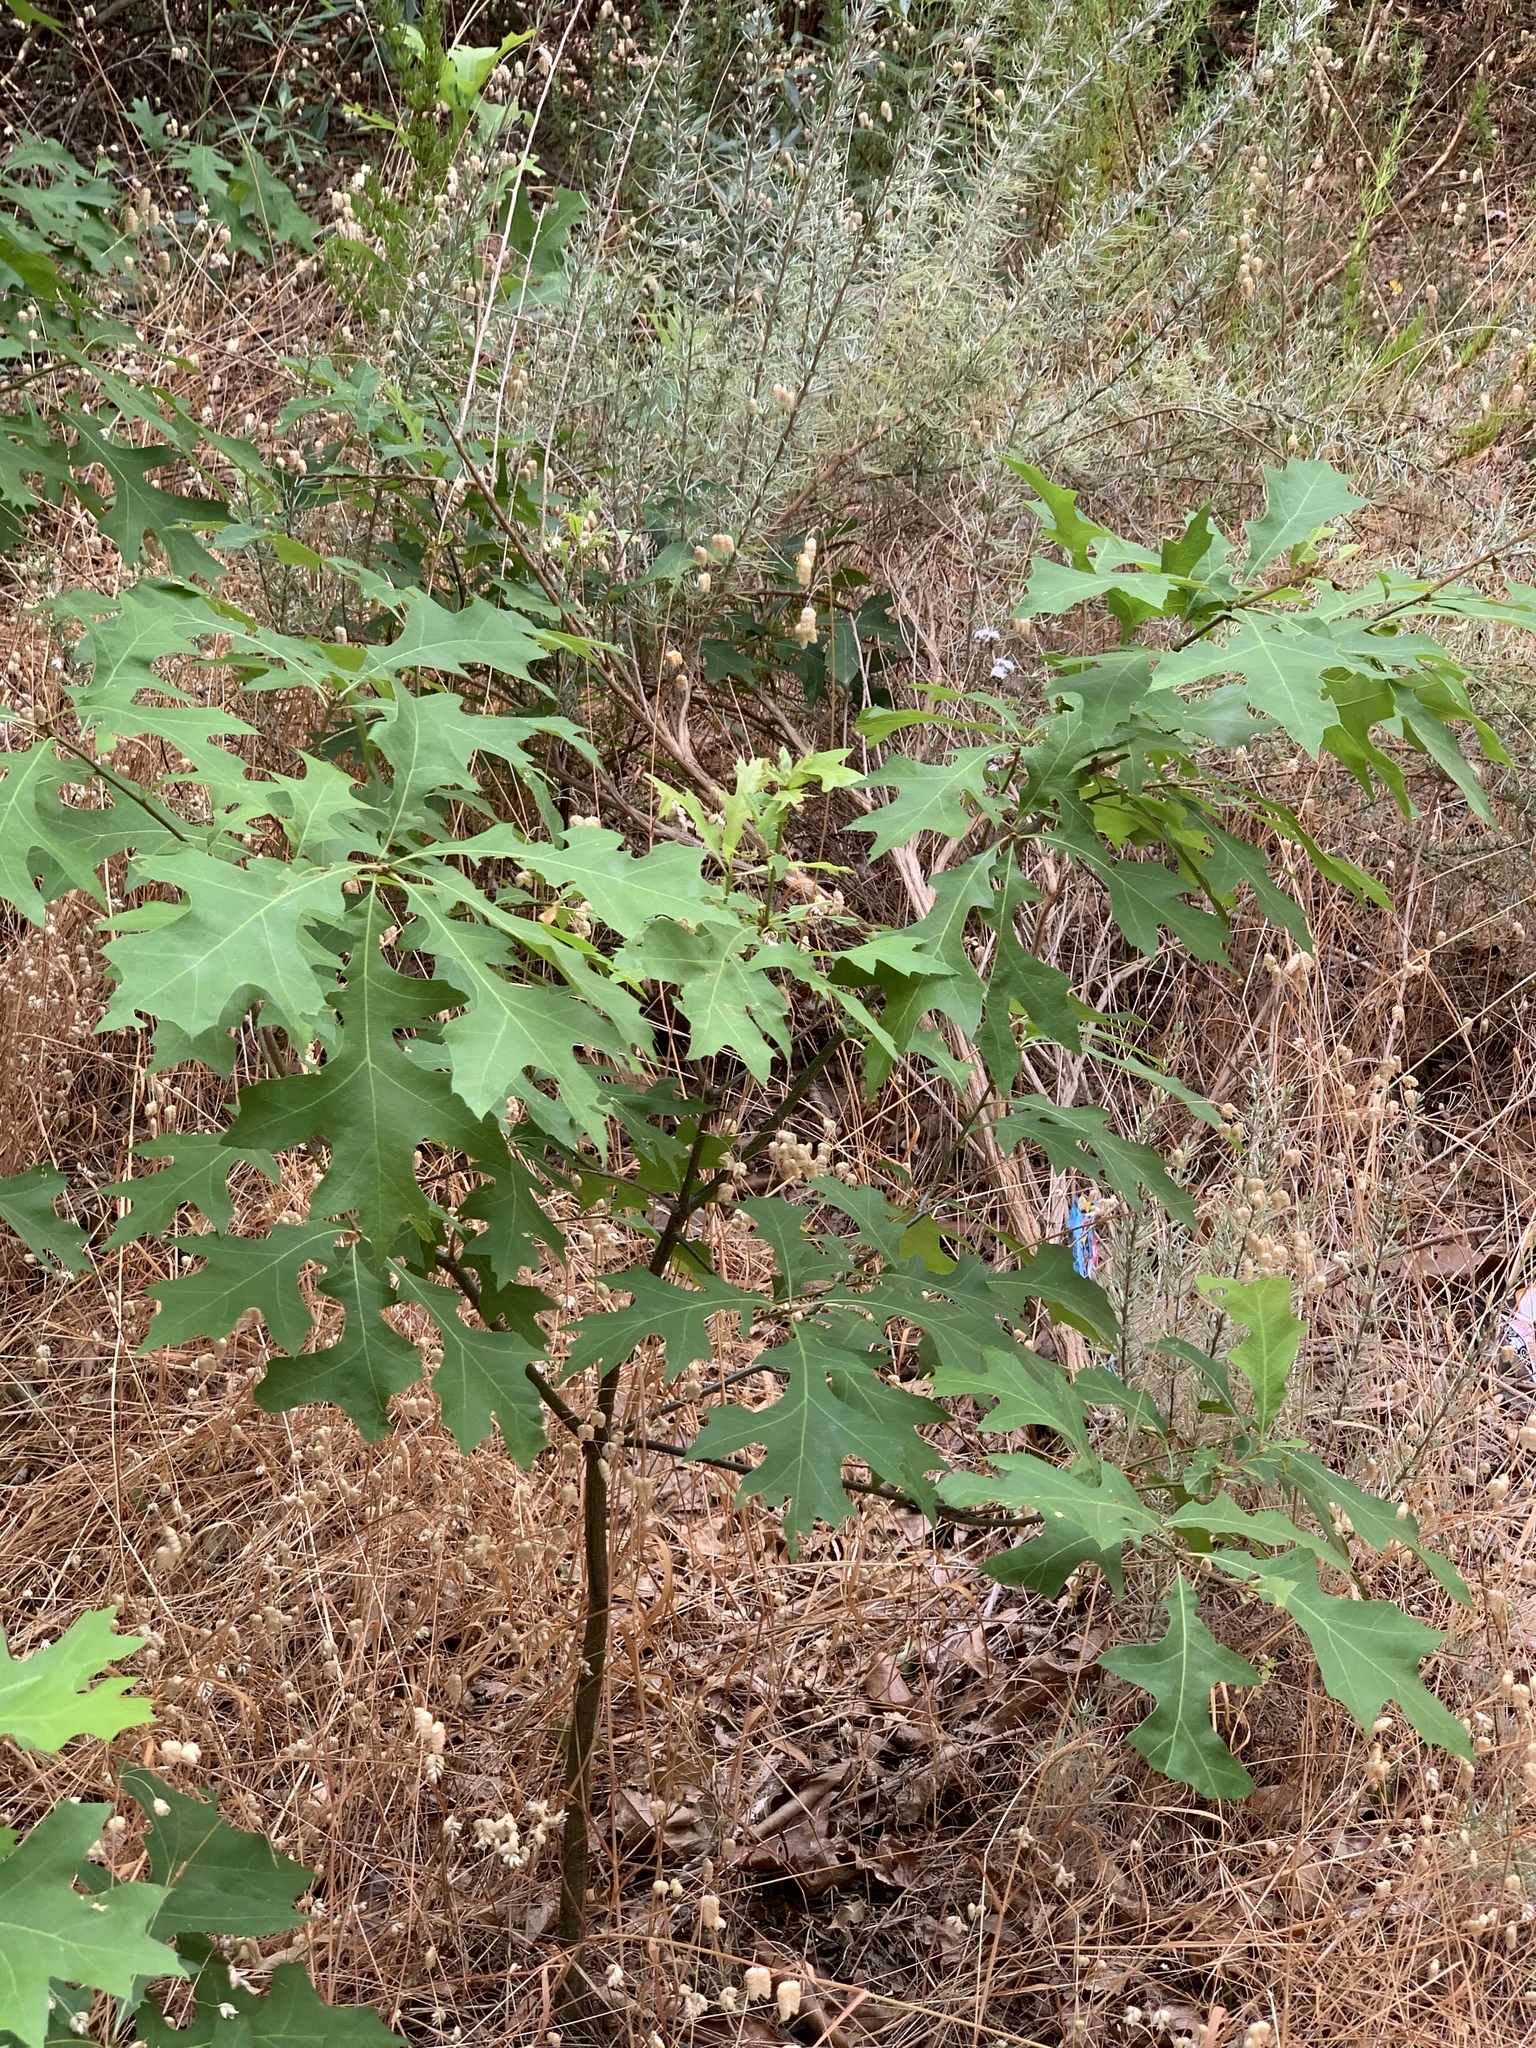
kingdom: Plantae
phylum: Tracheophyta
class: Magnoliopsida
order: Fagales
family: Fagaceae
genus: Quercus
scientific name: Quercus palustris
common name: Pin oak
